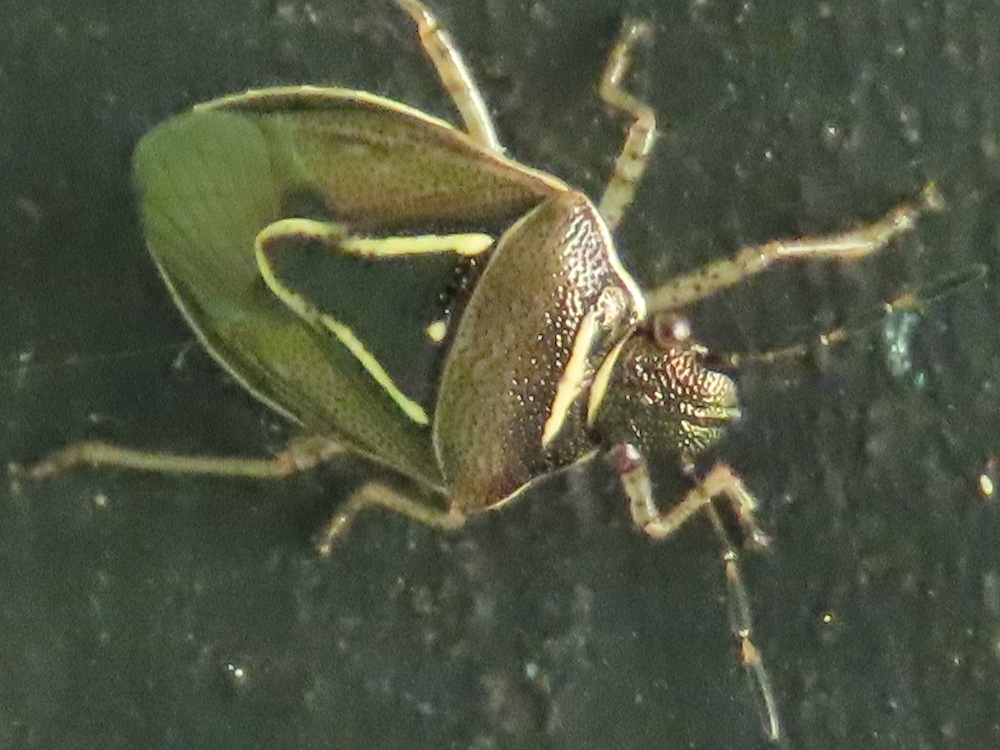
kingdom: Animalia
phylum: Arthropoda
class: Insecta
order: Hemiptera
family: Pentatomidae
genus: Mormidea
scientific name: Mormidea lugens
